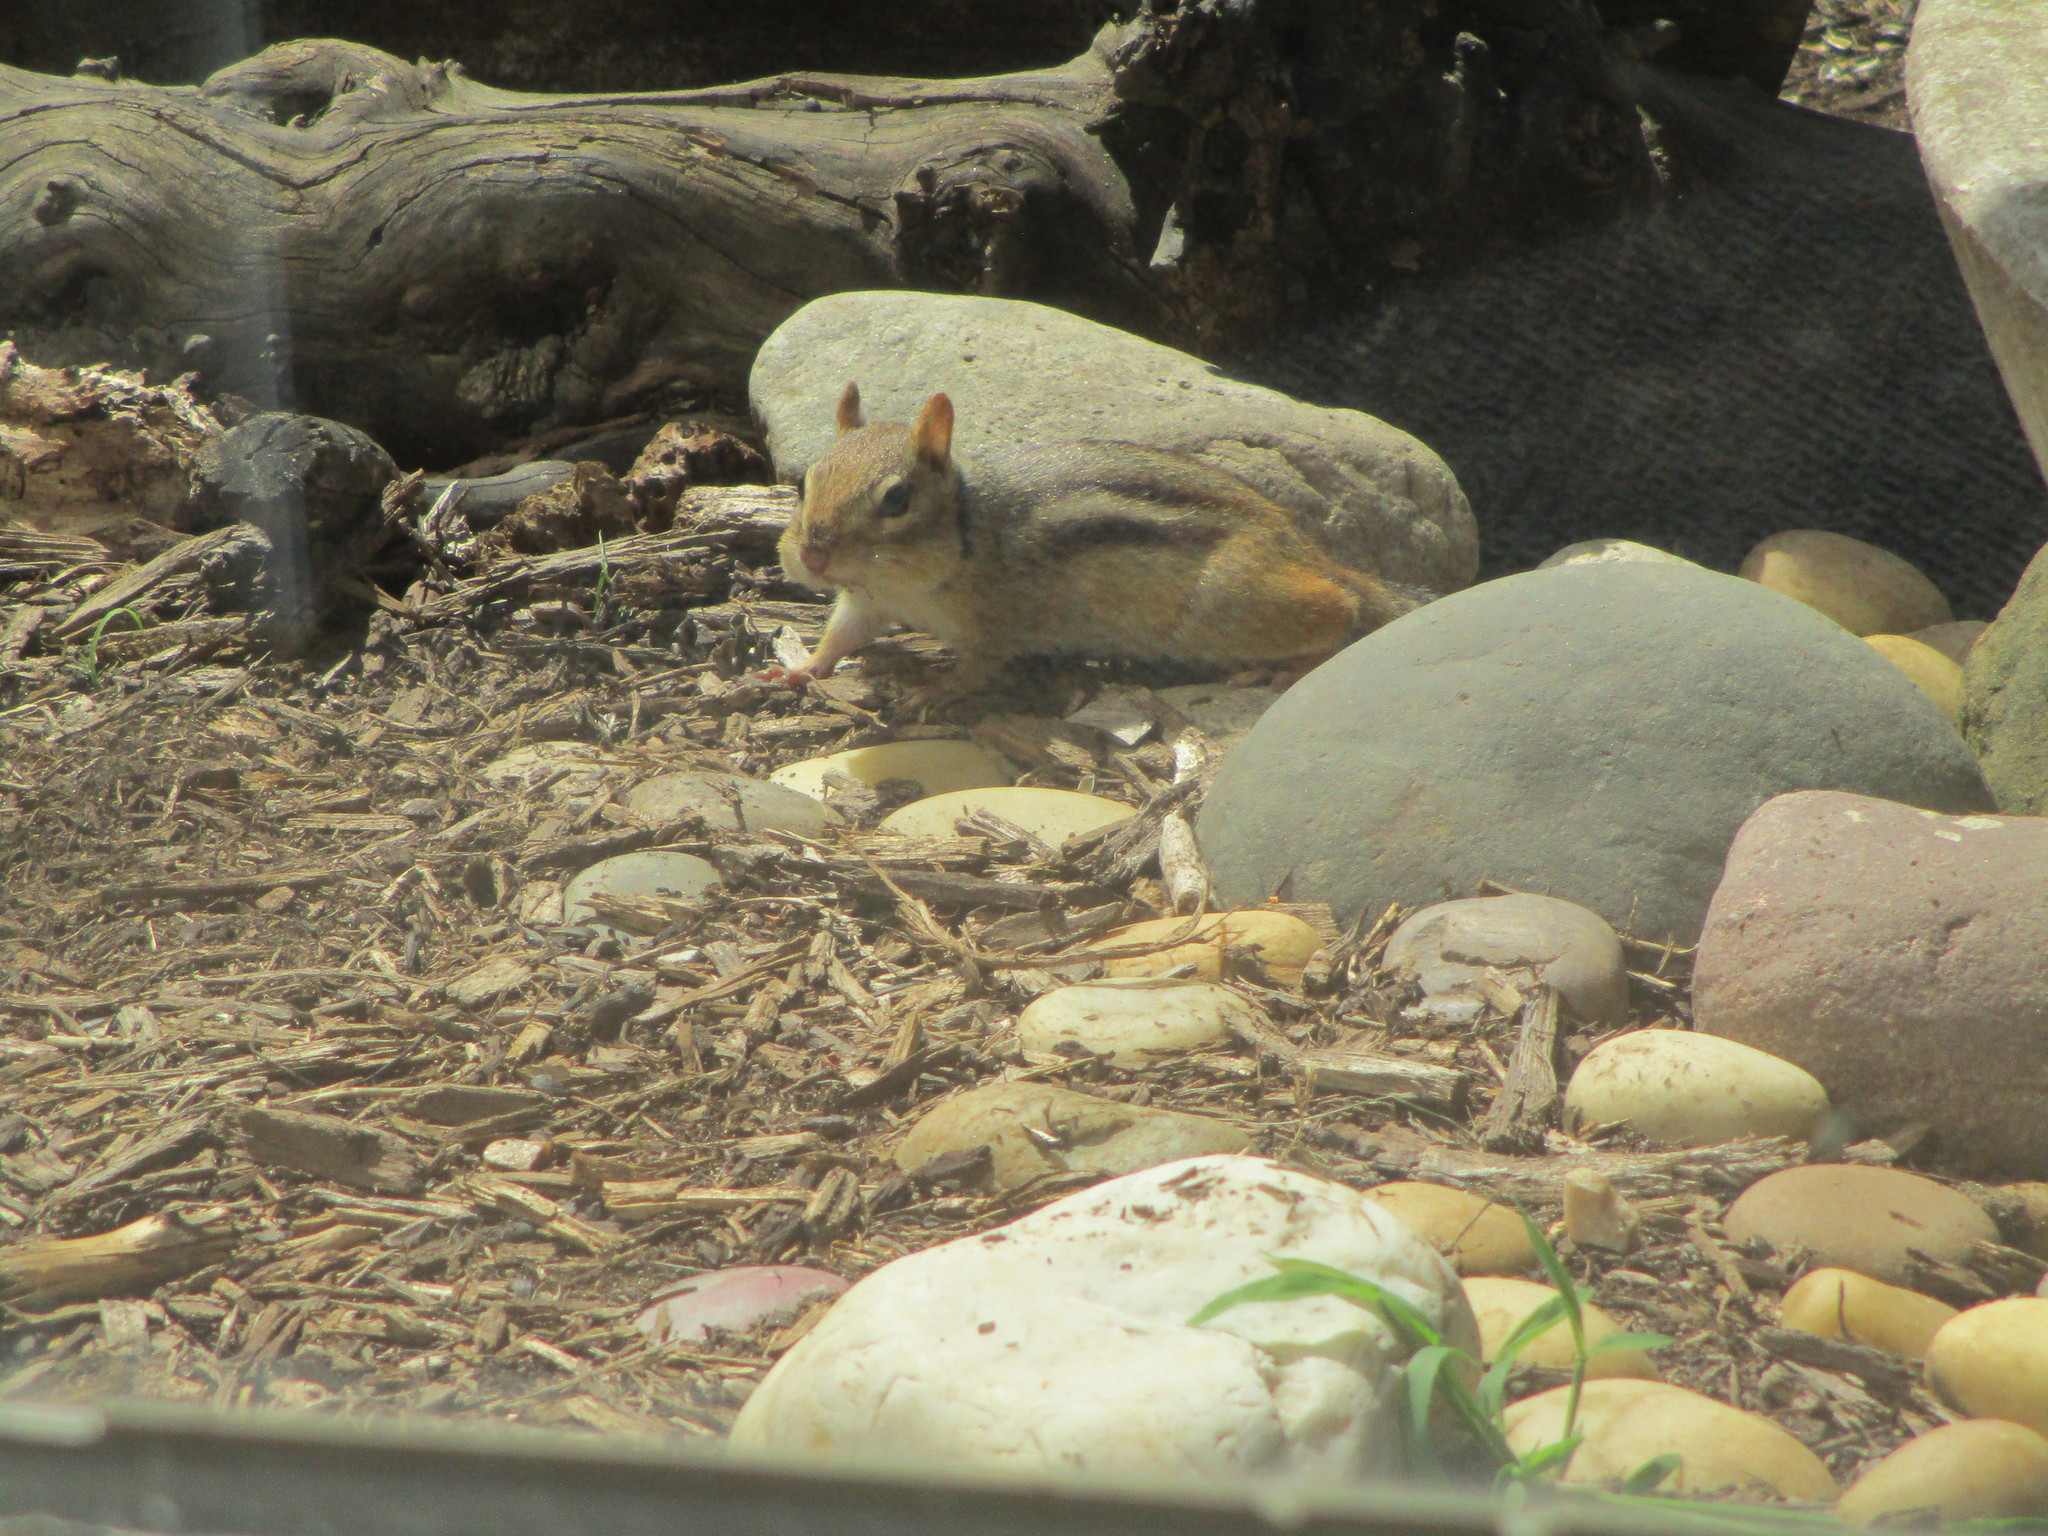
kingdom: Animalia
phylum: Chordata
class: Mammalia
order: Rodentia
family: Sciuridae
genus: Tamias
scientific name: Tamias striatus
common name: Eastern chipmunk
